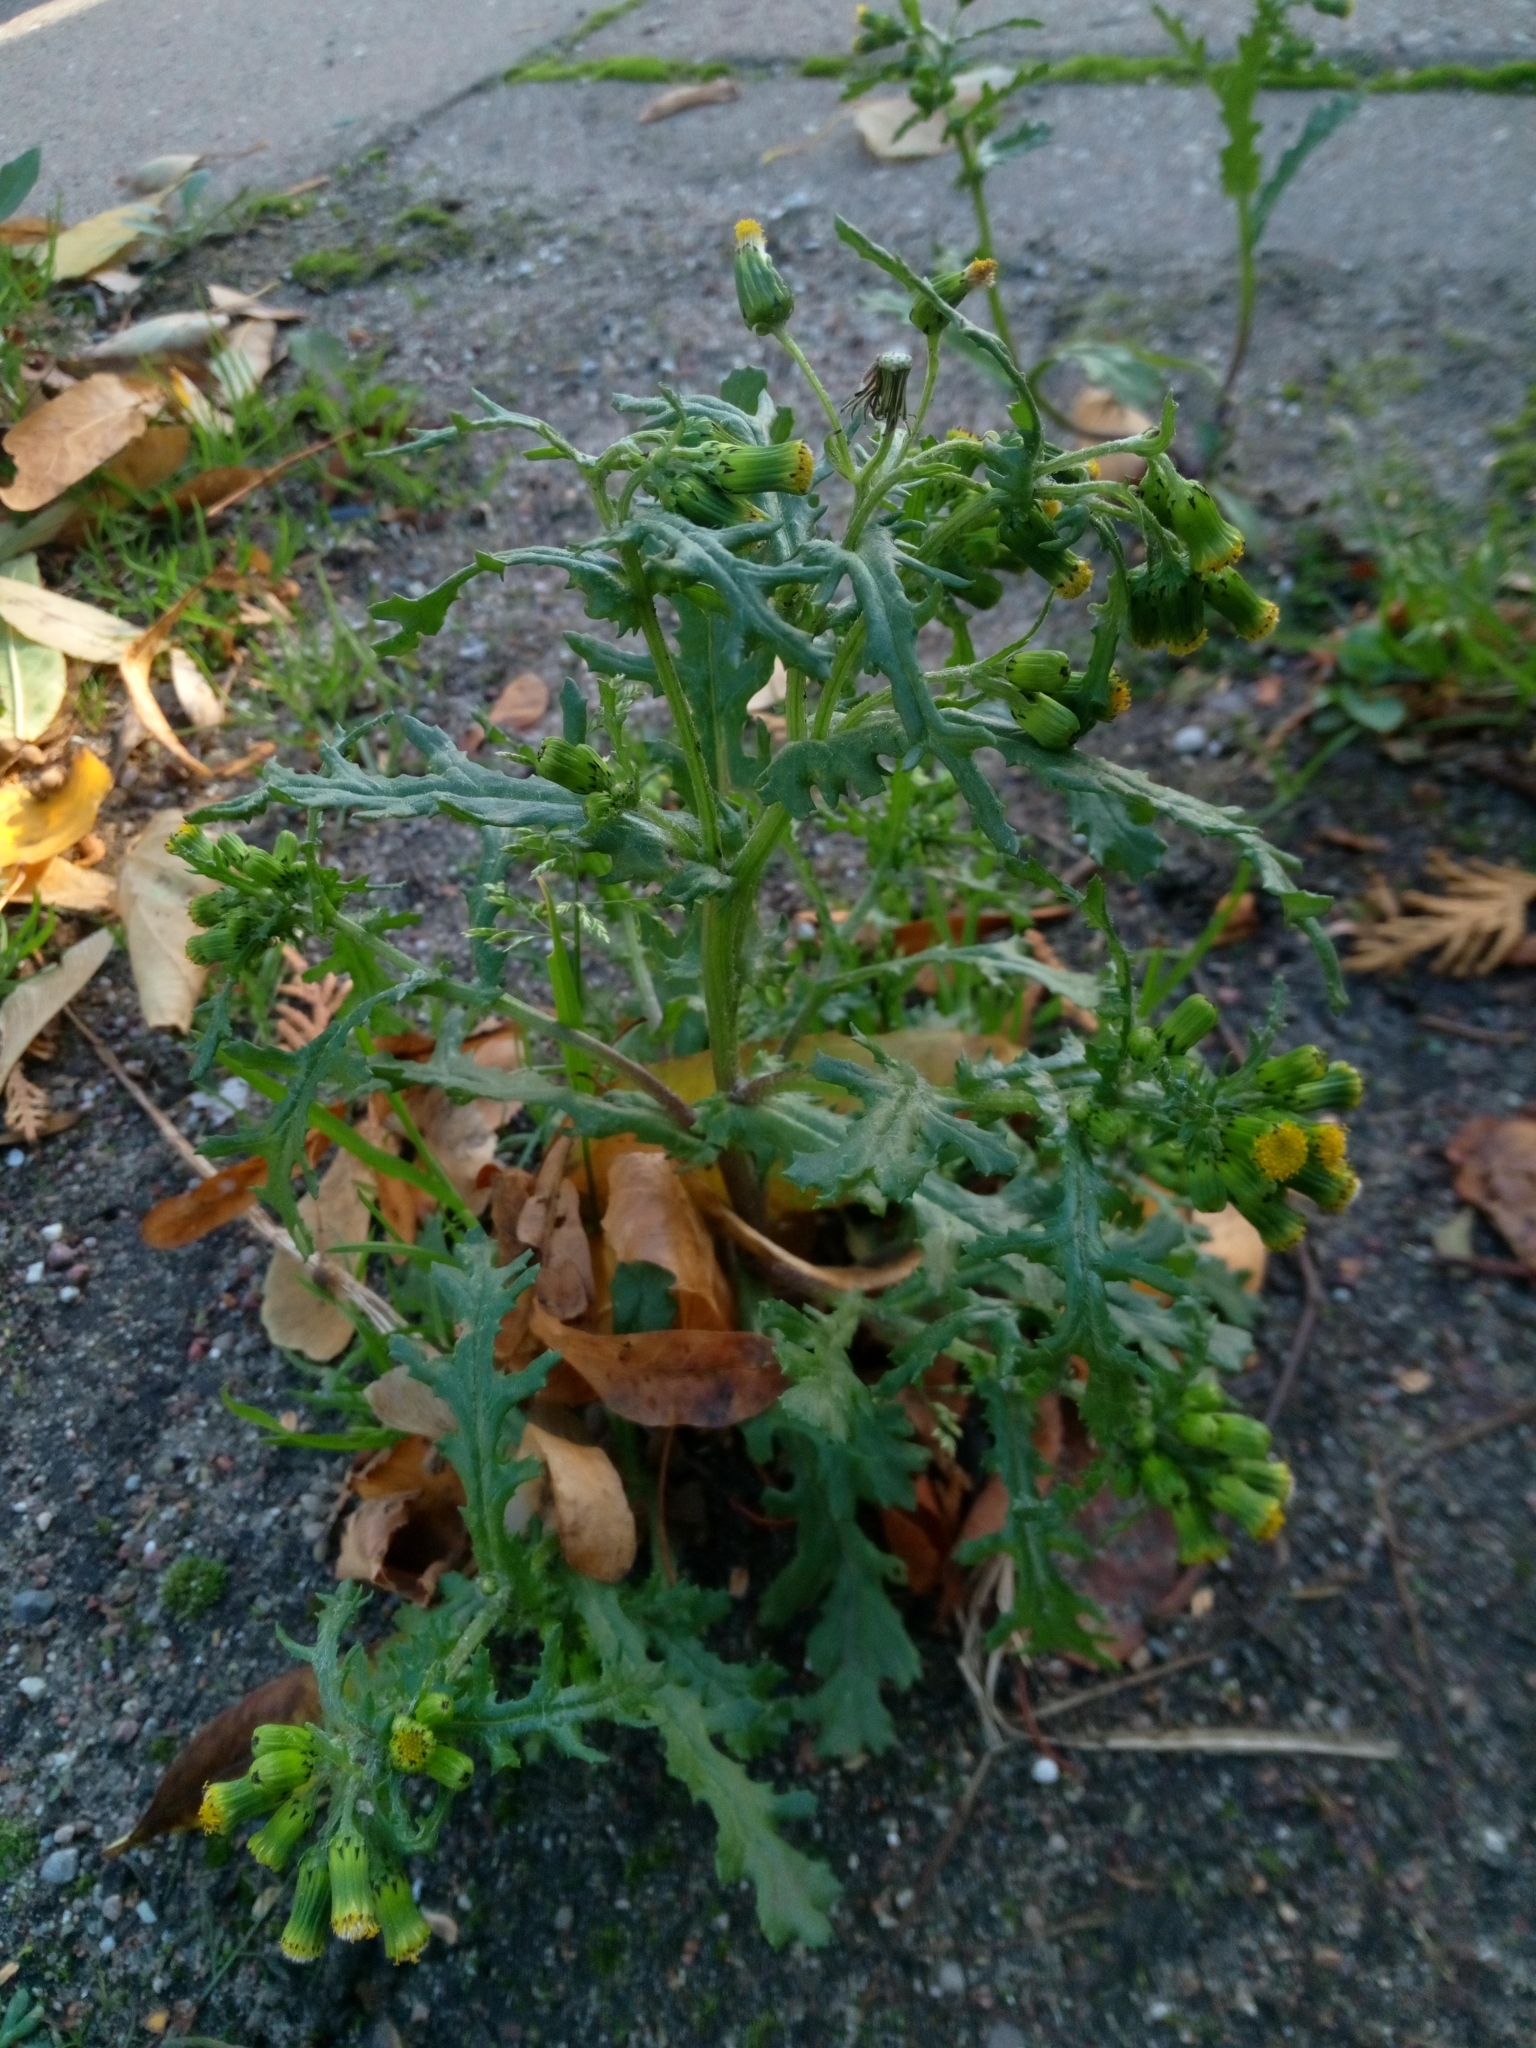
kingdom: Plantae
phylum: Tracheophyta
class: Magnoliopsida
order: Asterales
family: Asteraceae
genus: Senecio
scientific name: Senecio vulgaris
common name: Old-man-in-the-spring
